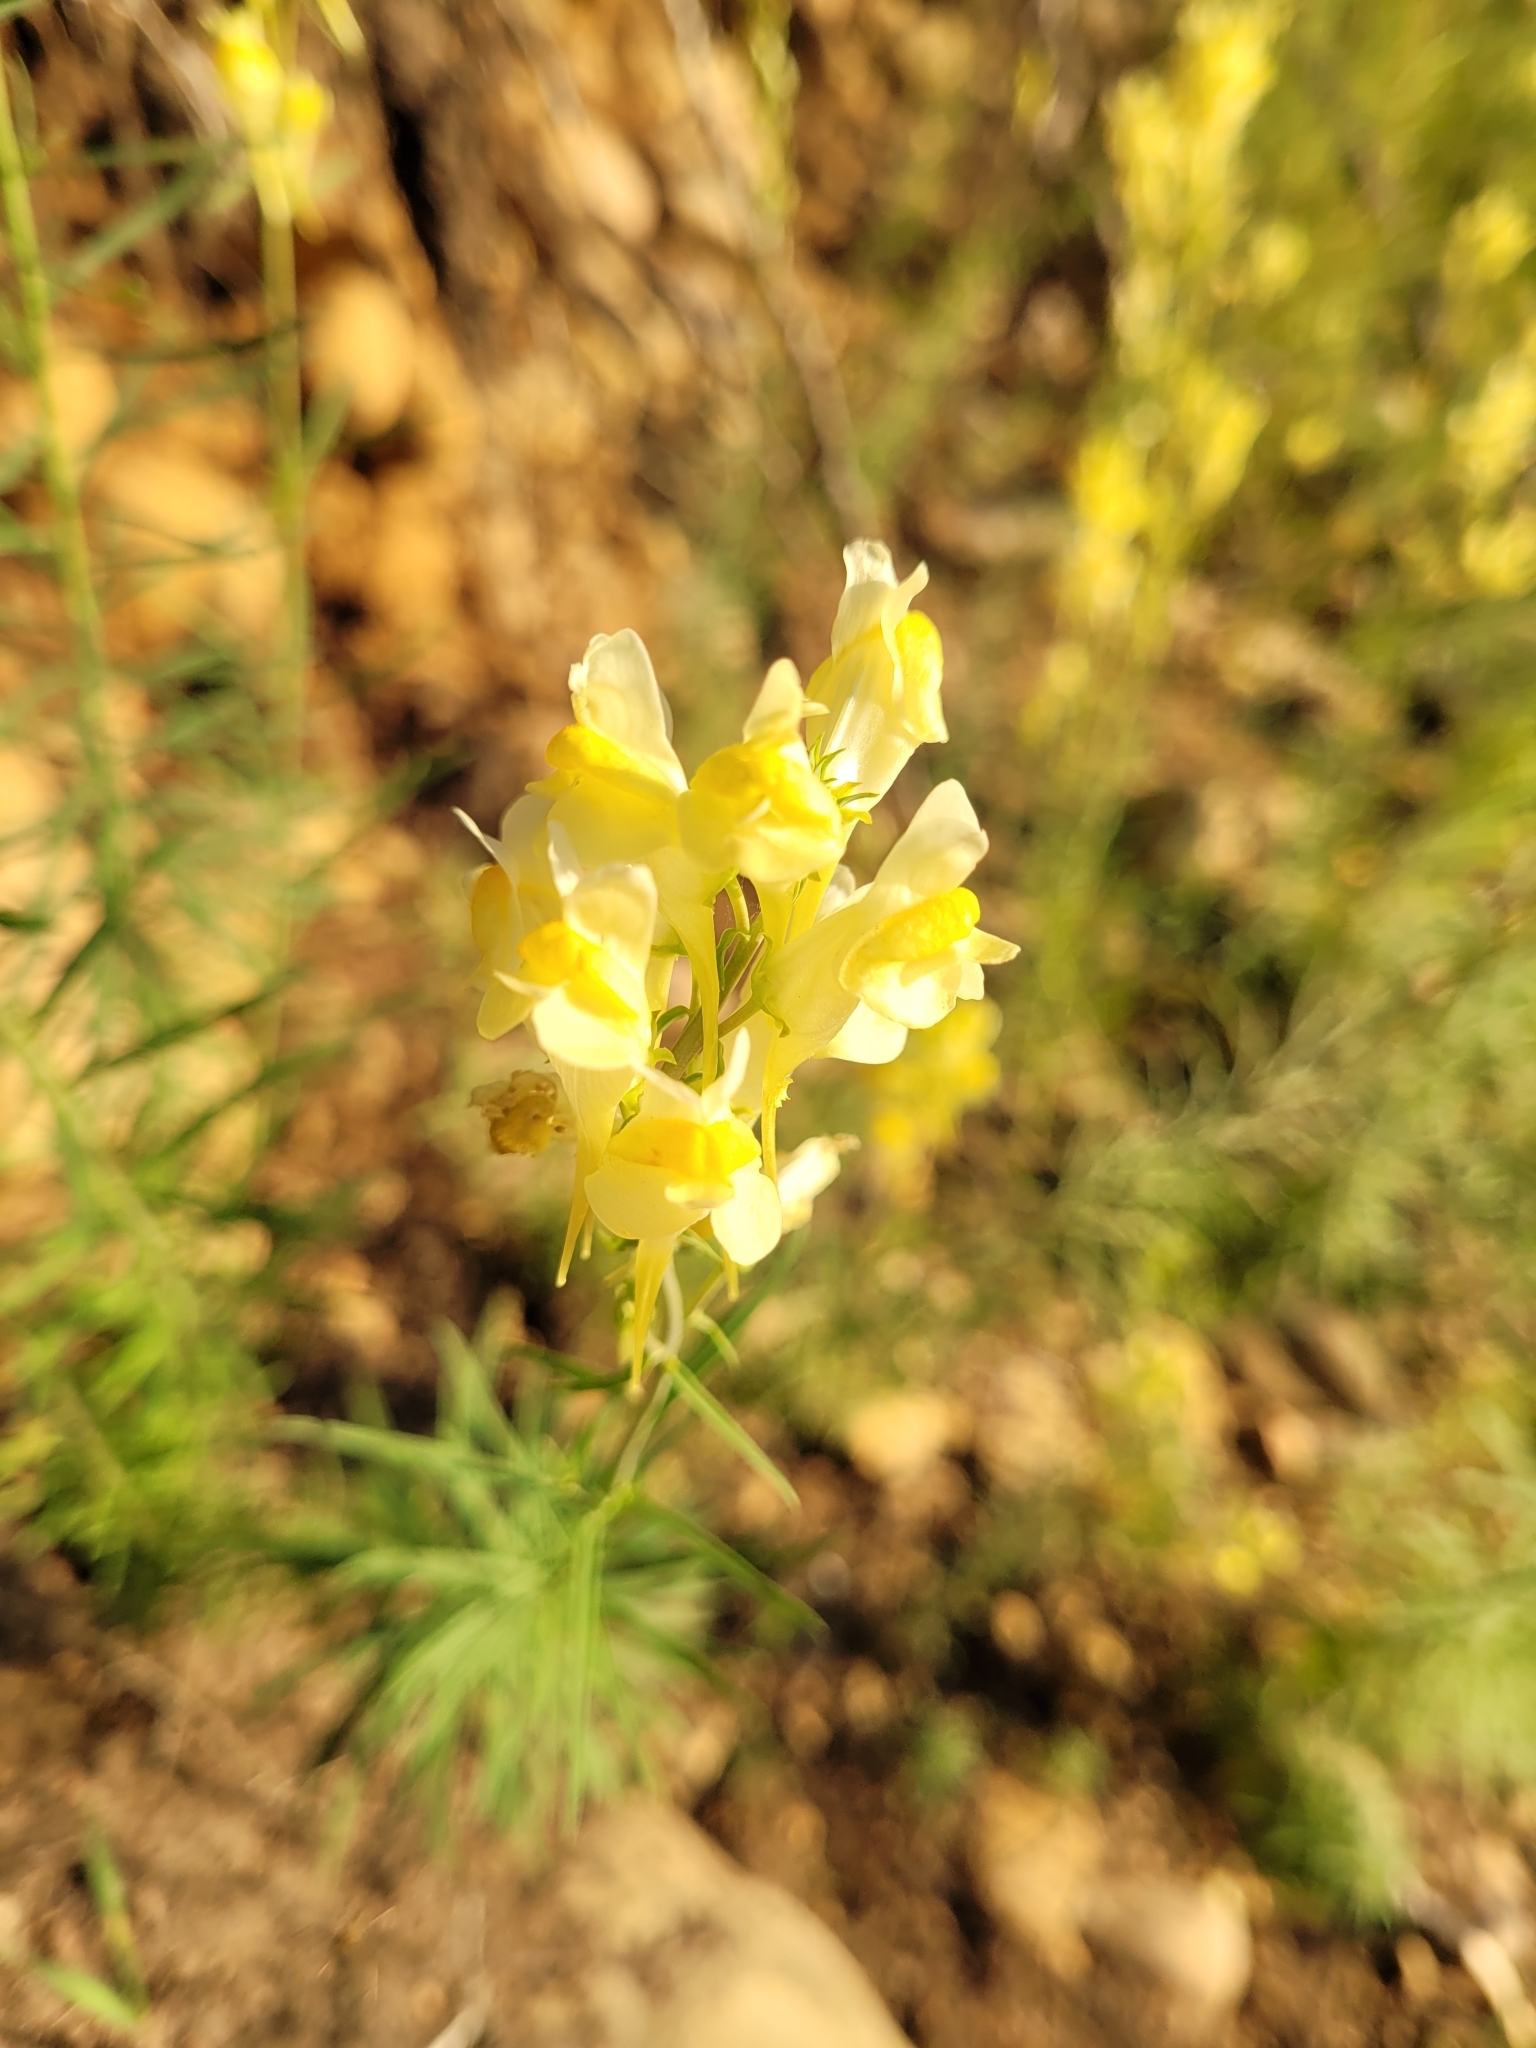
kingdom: Plantae
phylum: Tracheophyta
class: Magnoliopsida
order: Lamiales
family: Plantaginaceae
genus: Linaria
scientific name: Linaria vulgaris
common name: Butter and eggs
